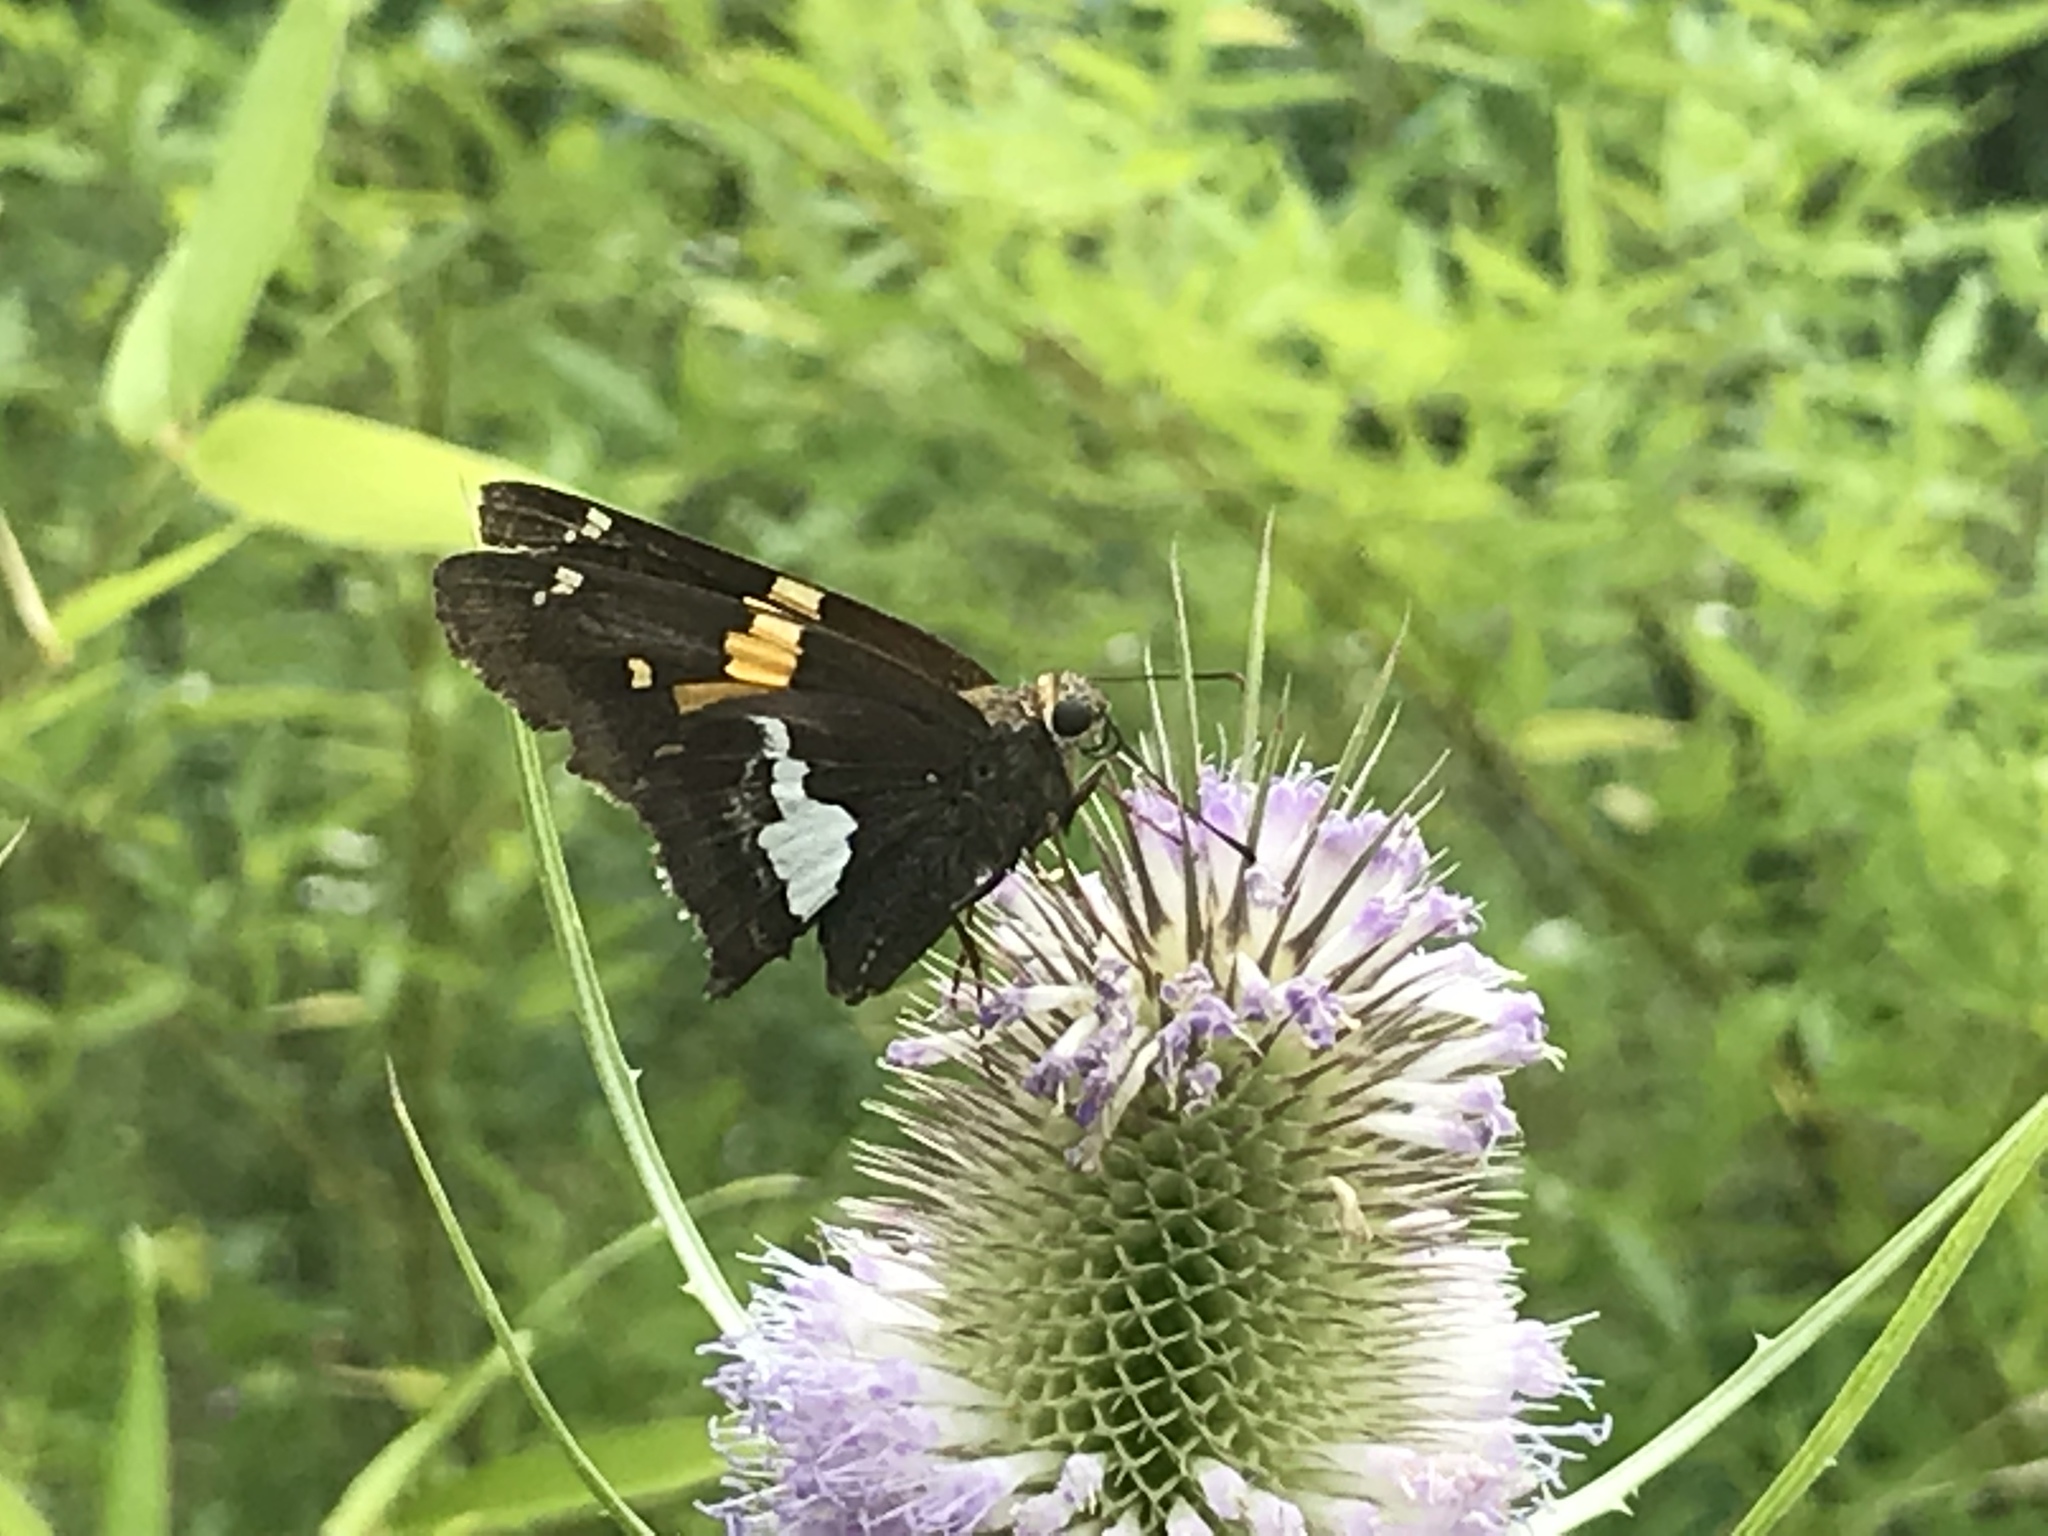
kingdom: Animalia
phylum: Arthropoda
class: Insecta
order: Lepidoptera
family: Hesperiidae
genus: Epargyreus
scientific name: Epargyreus clarus
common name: Silver-spotted skipper
